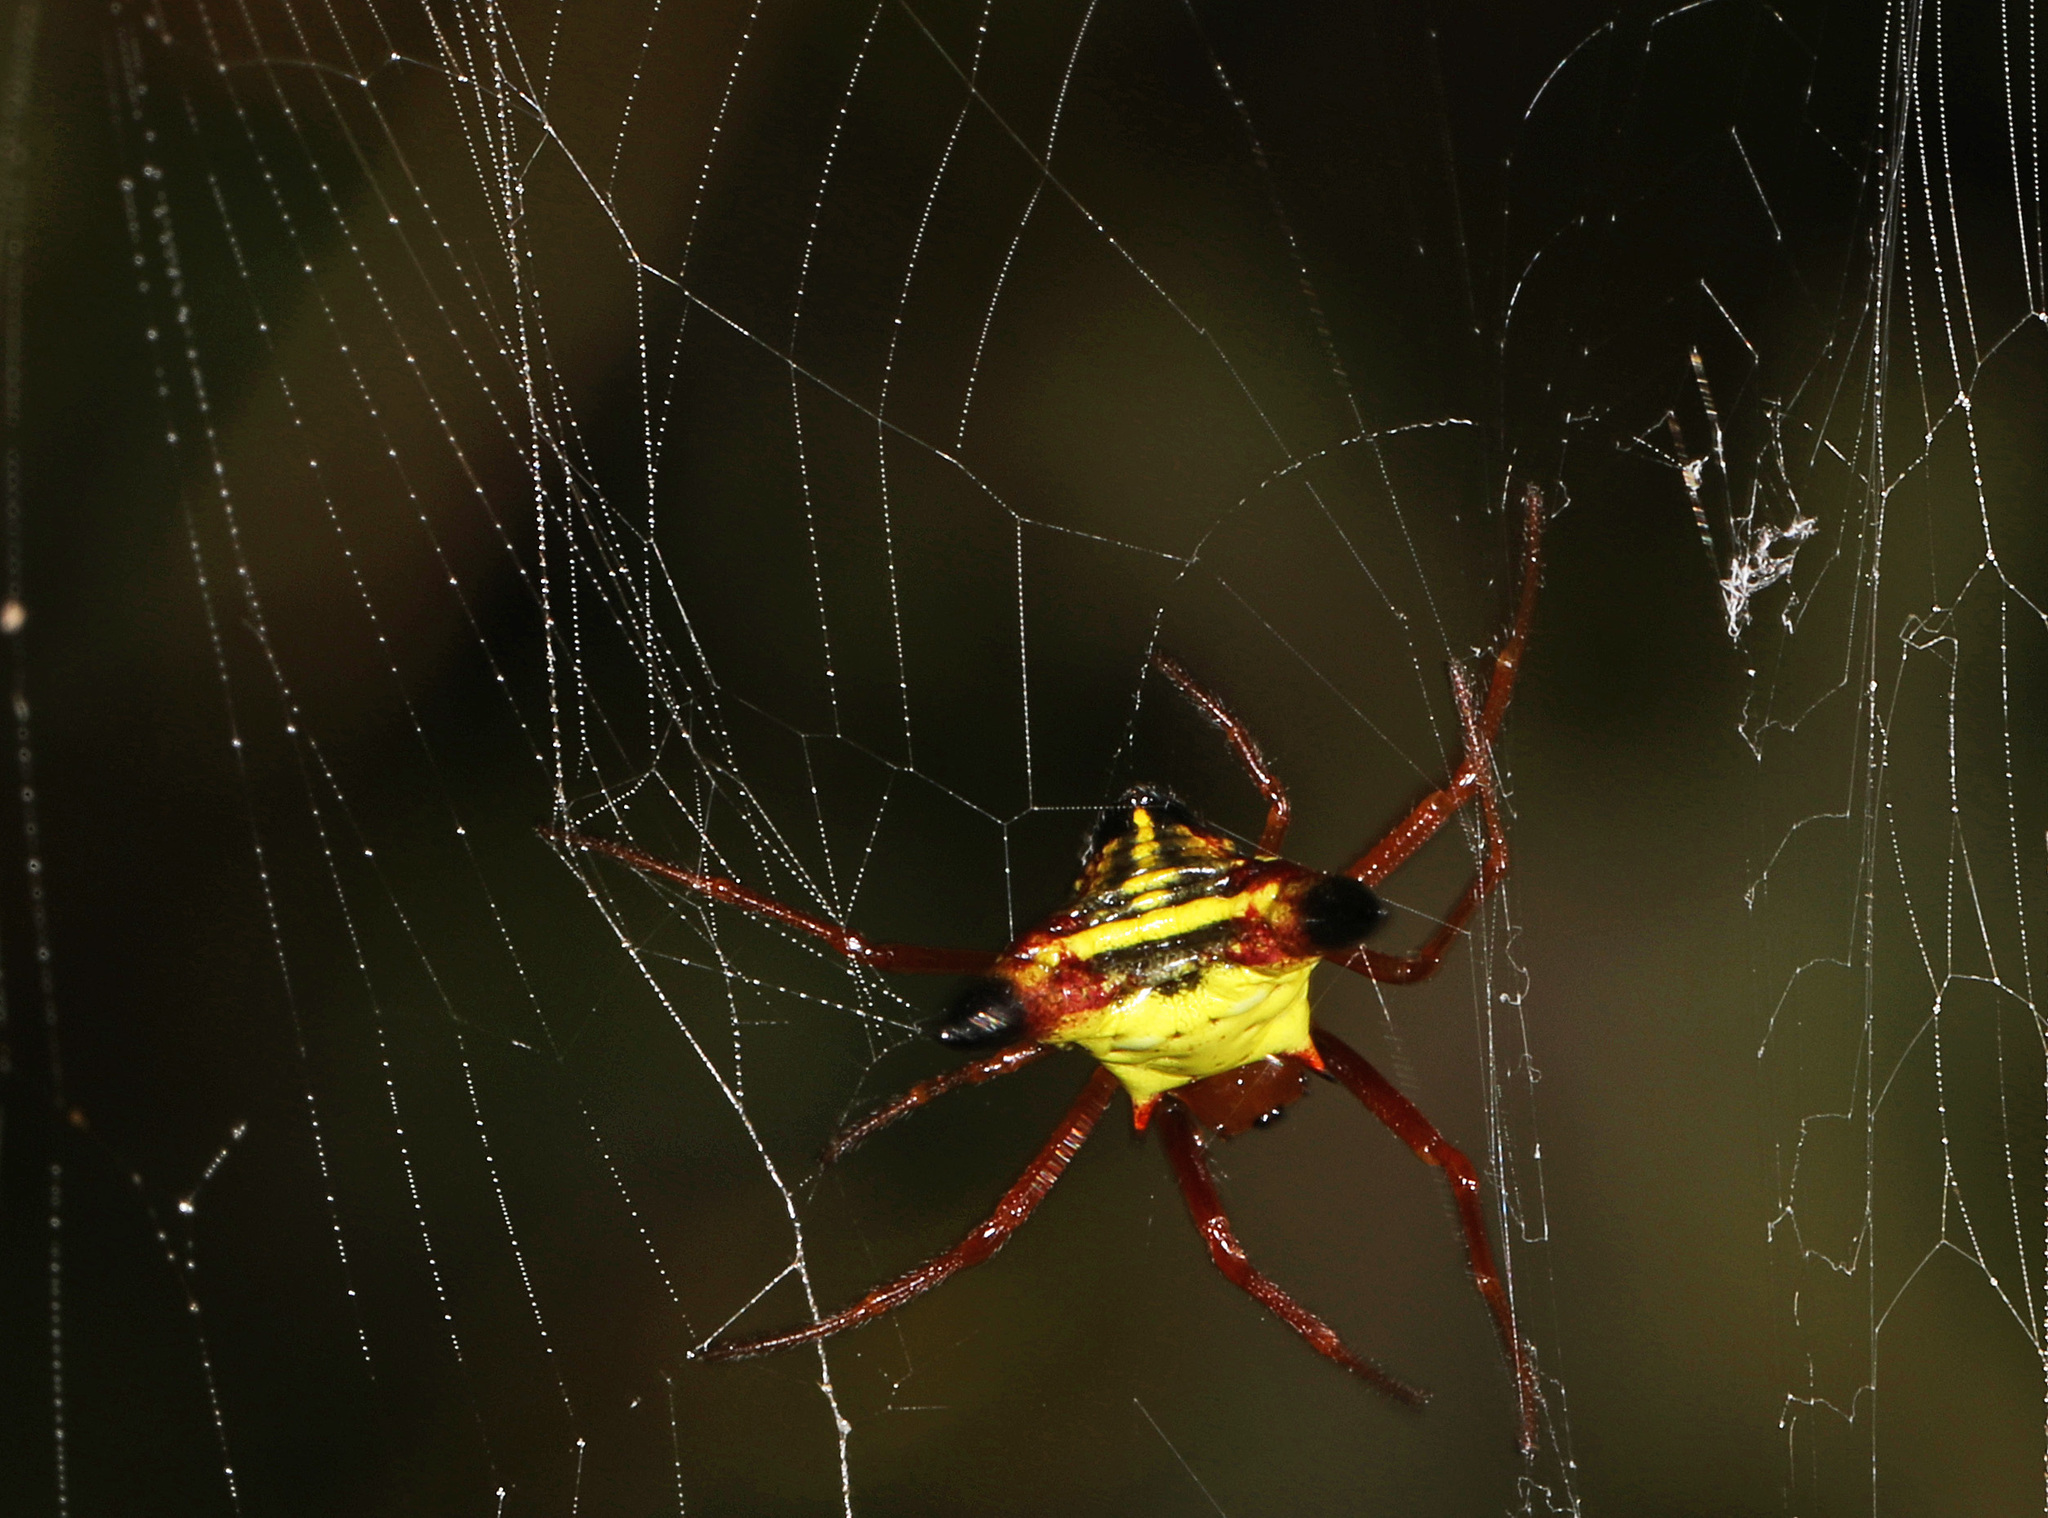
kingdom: Animalia
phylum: Arthropoda
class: Arachnida
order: Araneae
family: Araneidae
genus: Micrathena
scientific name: Micrathena sagittata
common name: Orb weavers
